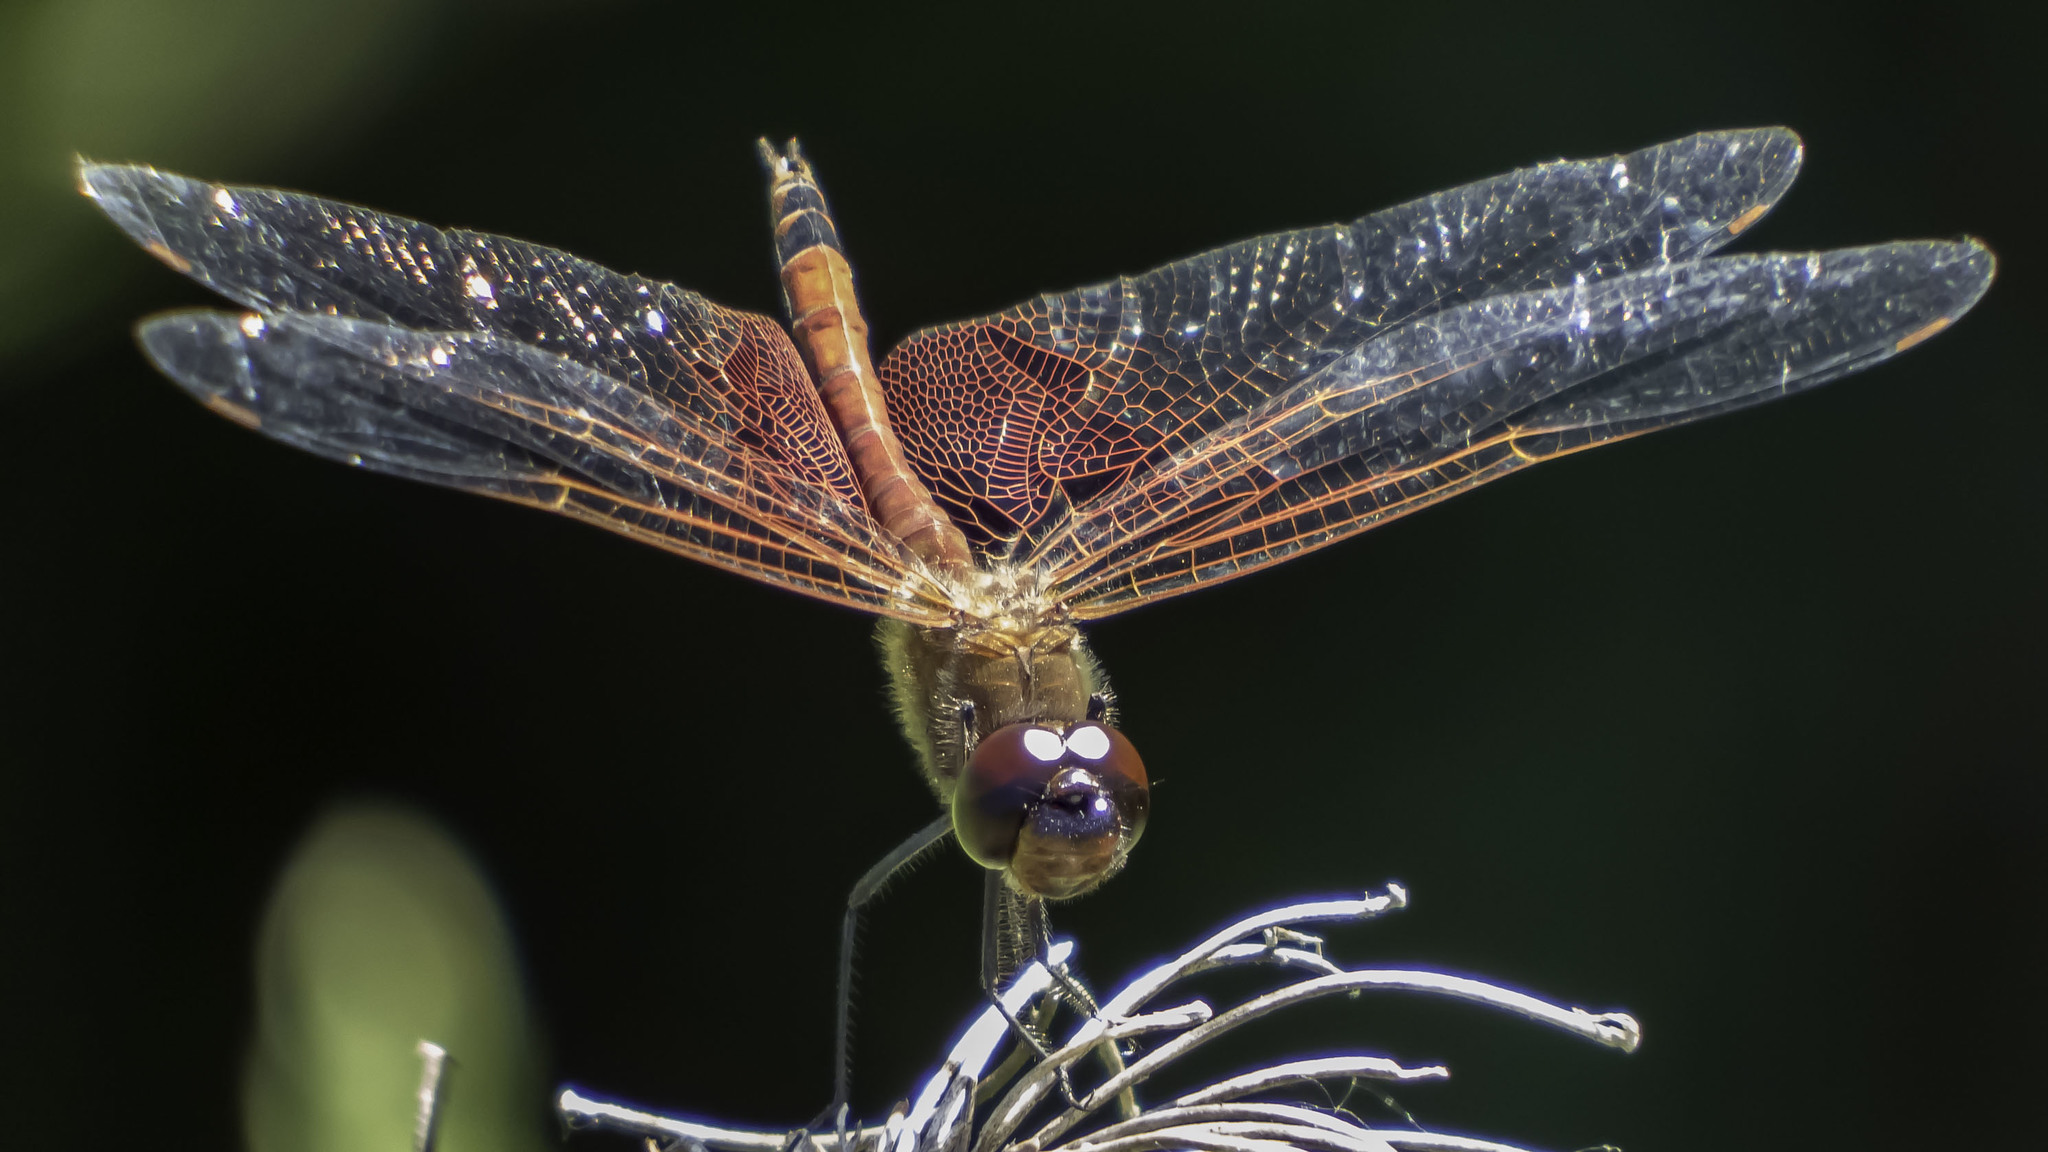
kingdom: Animalia
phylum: Arthropoda
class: Insecta
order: Odonata
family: Libellulidae
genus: Tramea
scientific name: Tramea carolina
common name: Carolina saddlebags
